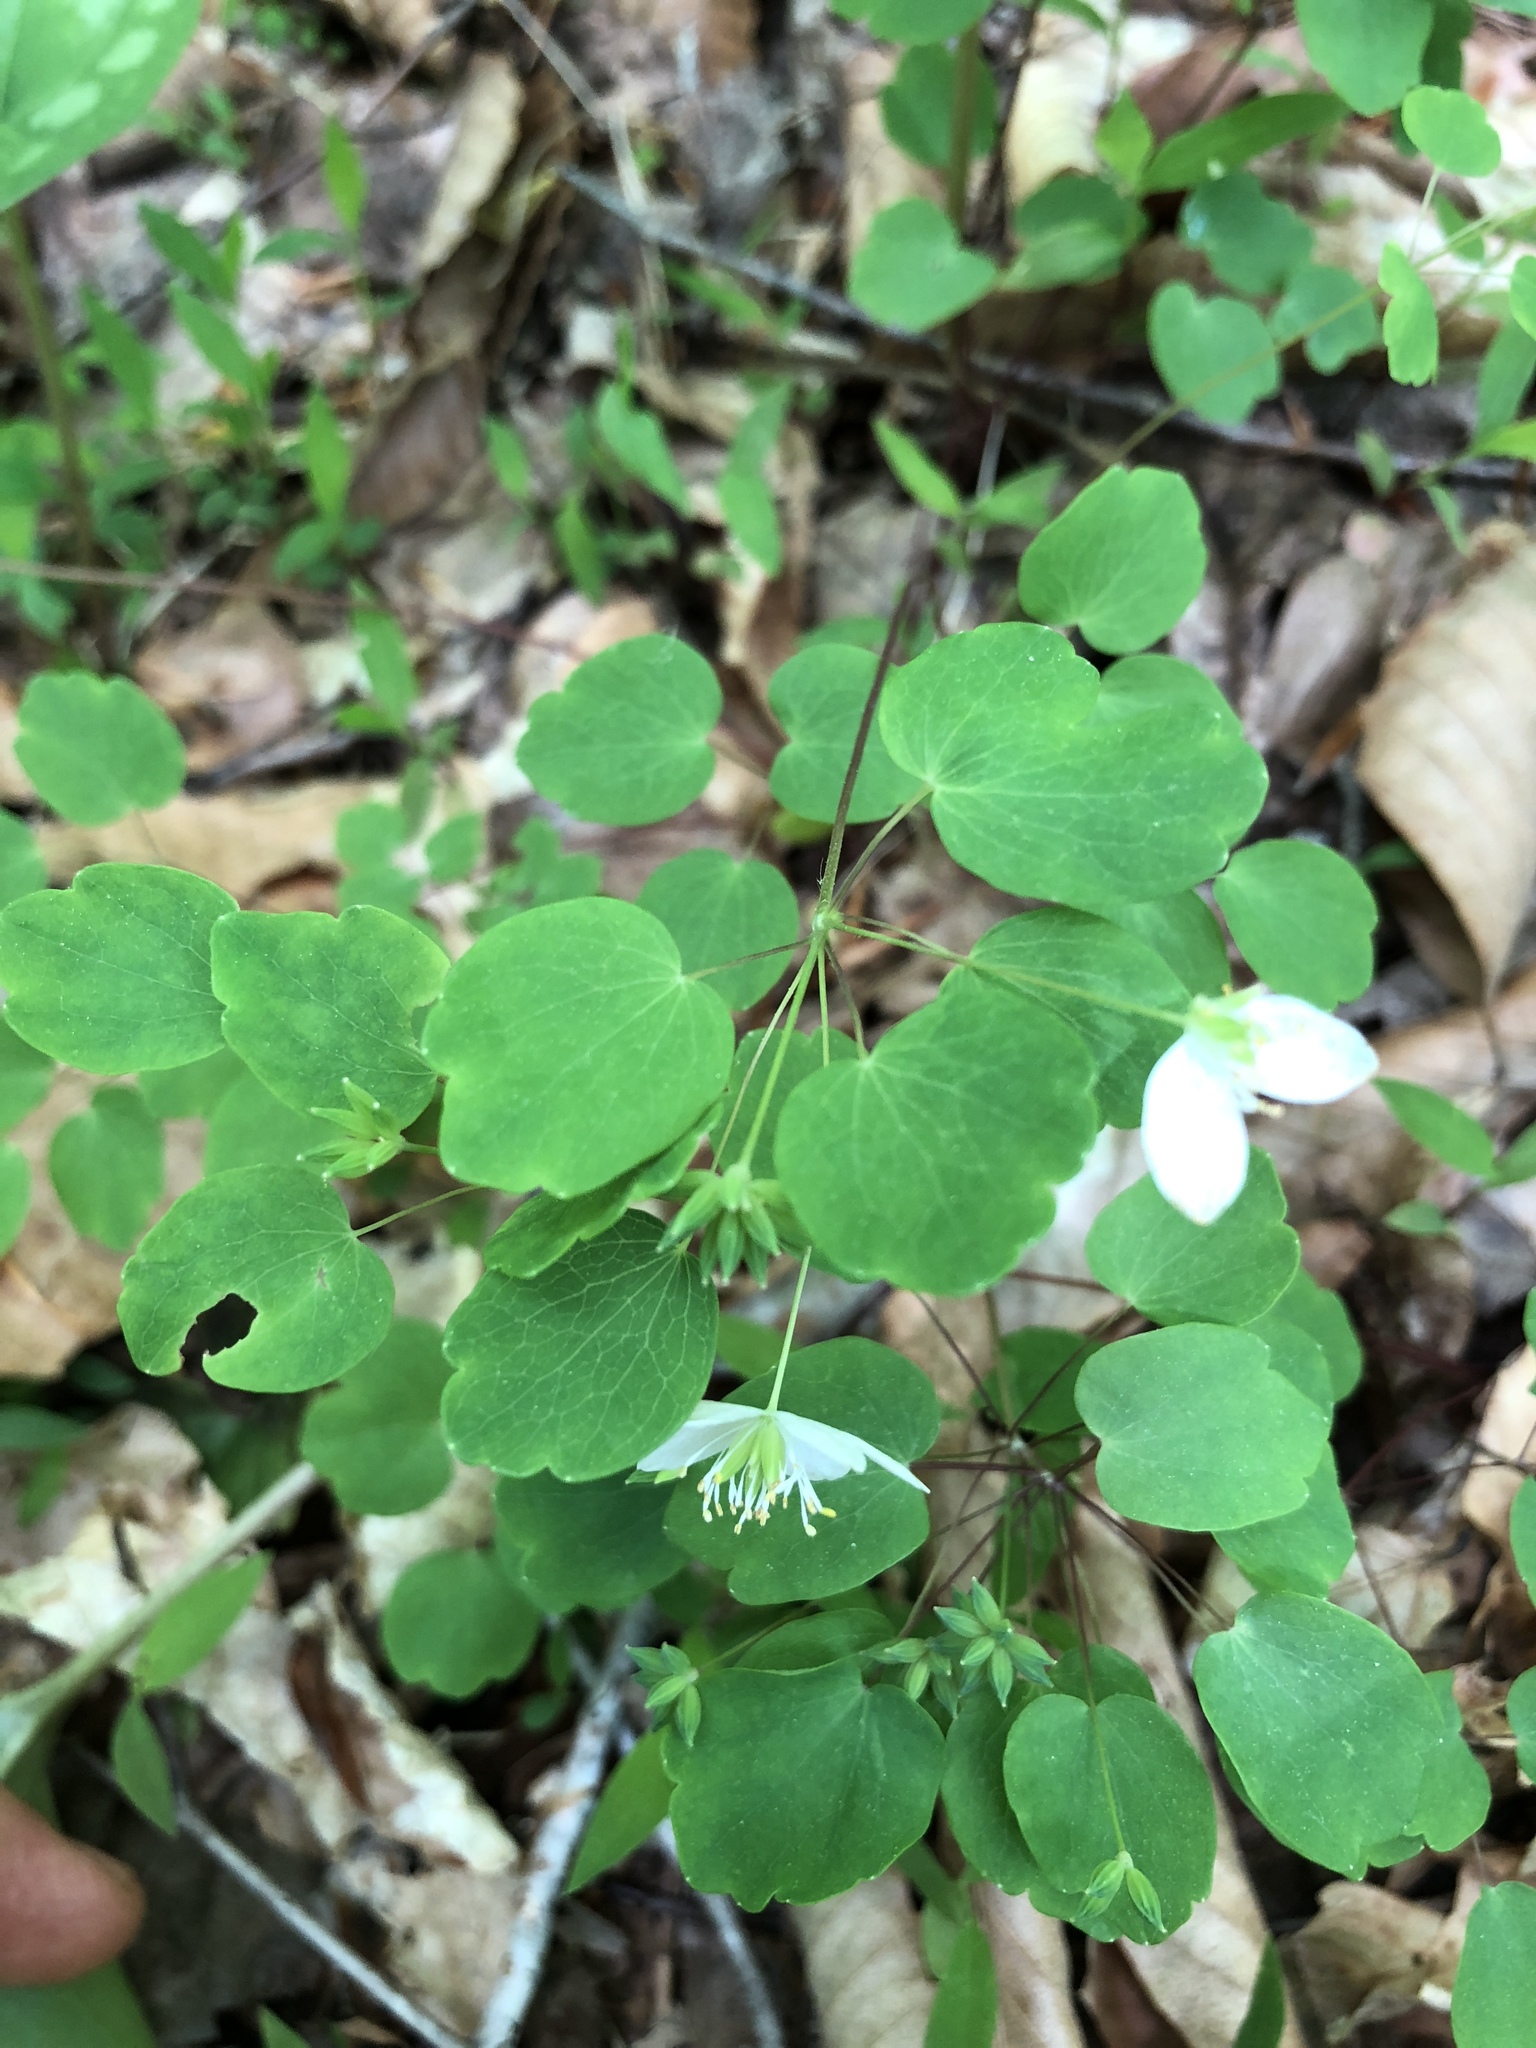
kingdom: Plantae
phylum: Tracheophyta
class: Magnoliopsida
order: Ranunculales
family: Ranunculaceae
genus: Thalictrum
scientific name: Thalictrum thalictroides
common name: Rue-anemone
